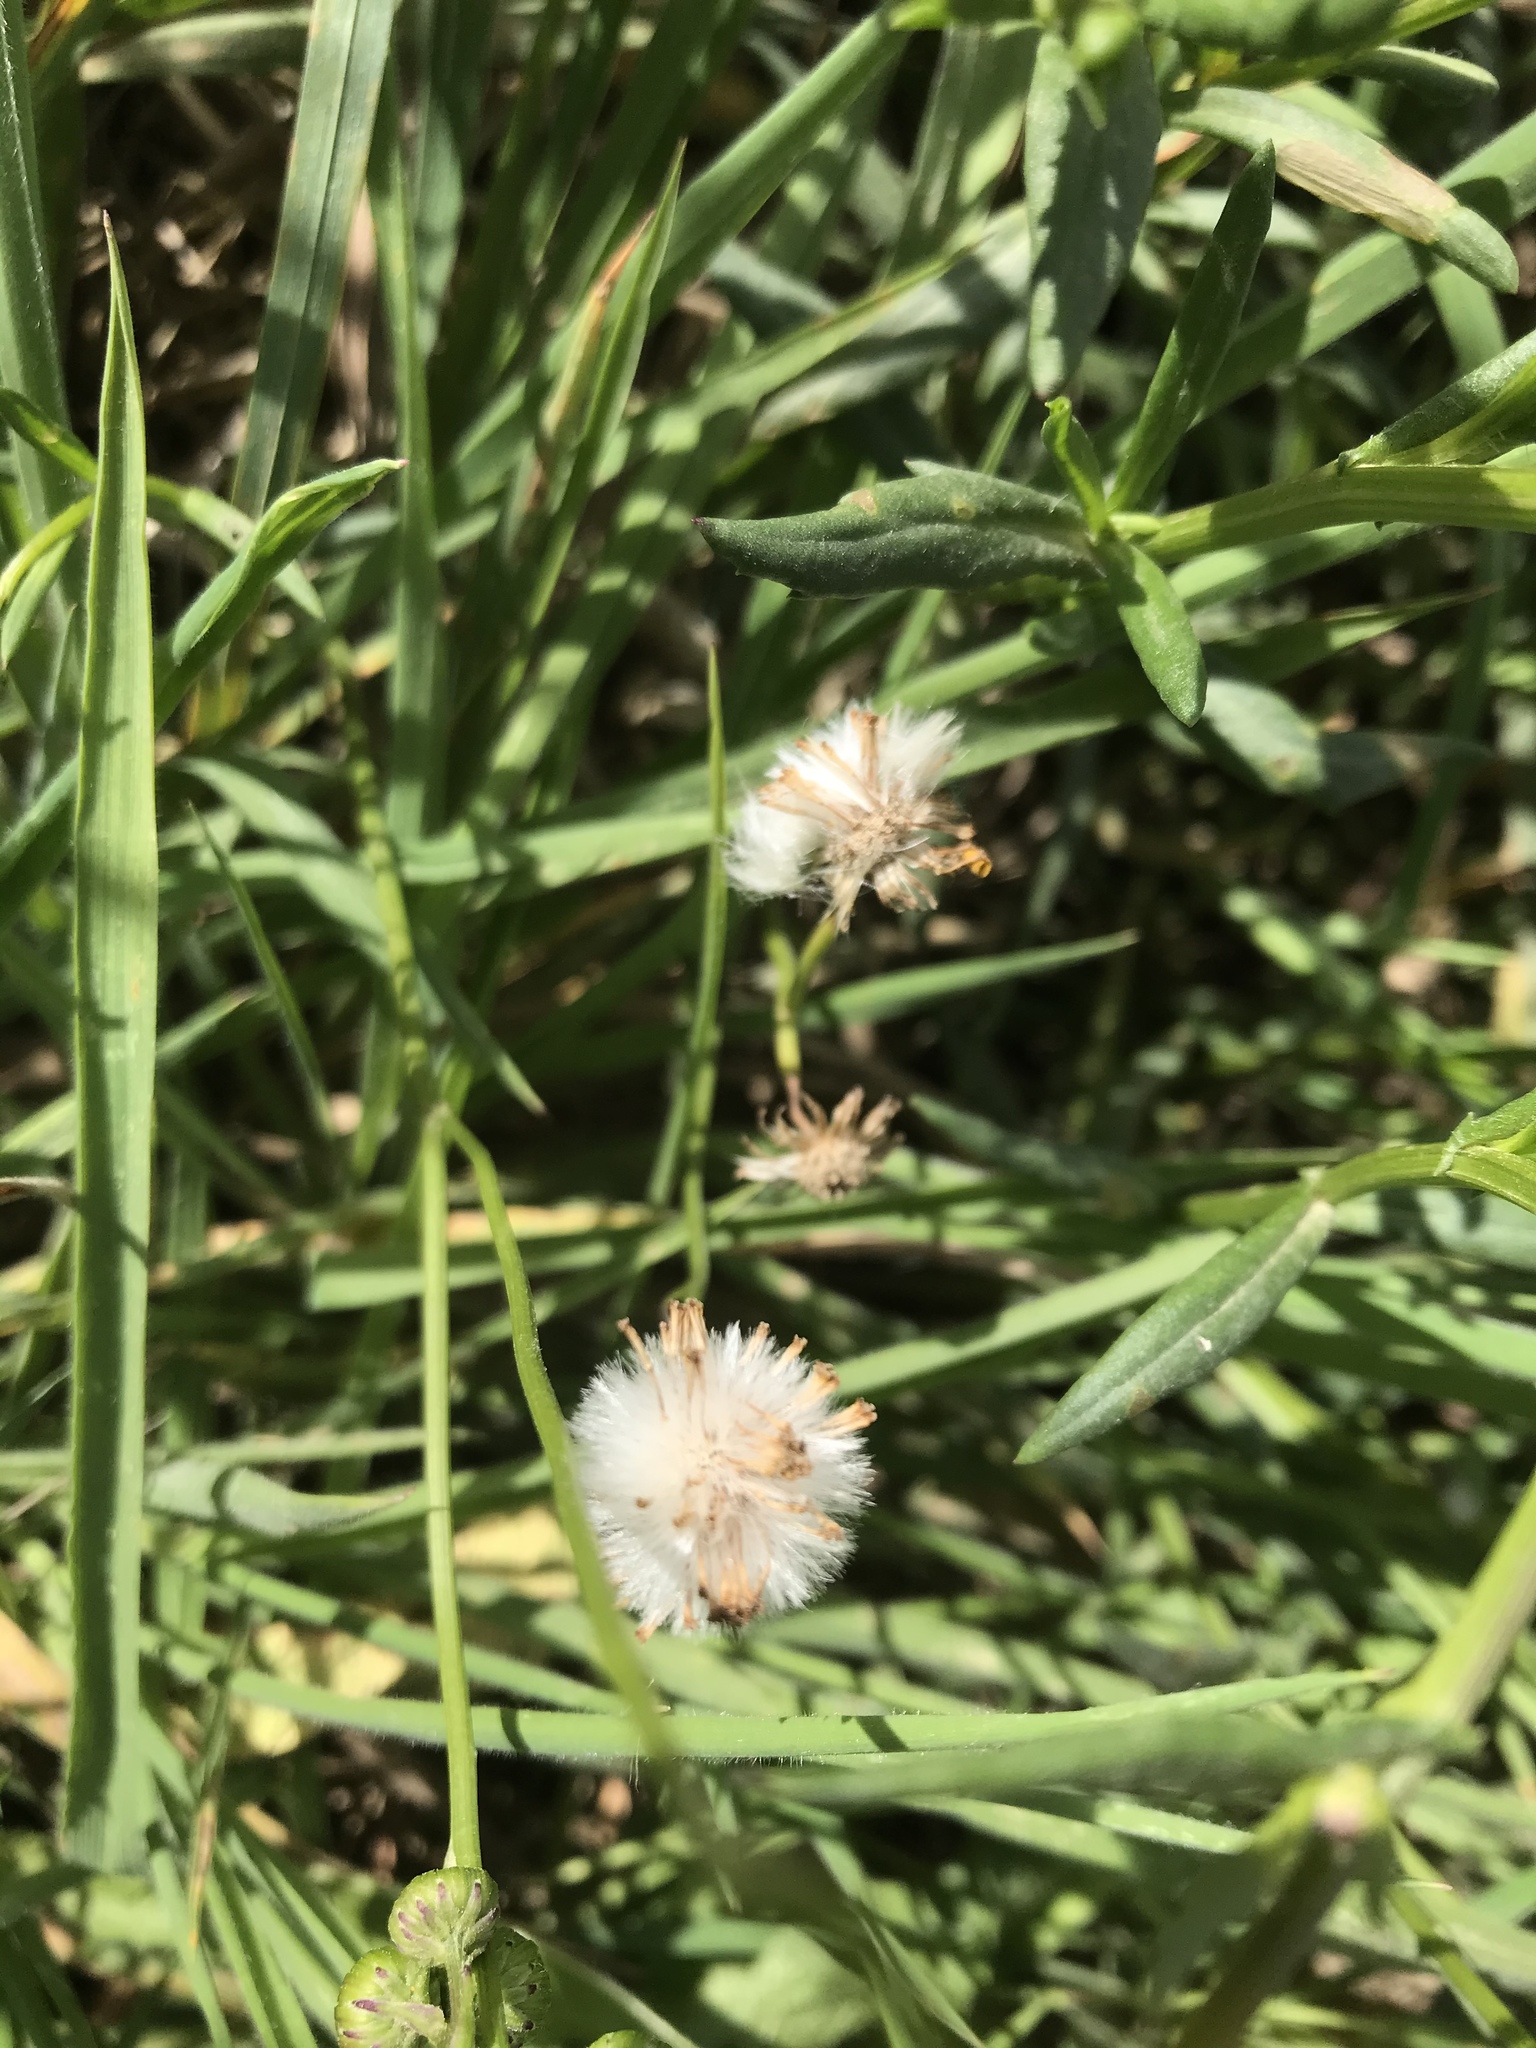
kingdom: Plantae
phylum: Tracheophyta
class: Magnoliopsida
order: Asterales
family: Asteraceae
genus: Senecio
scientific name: Senecio skirrhodon
